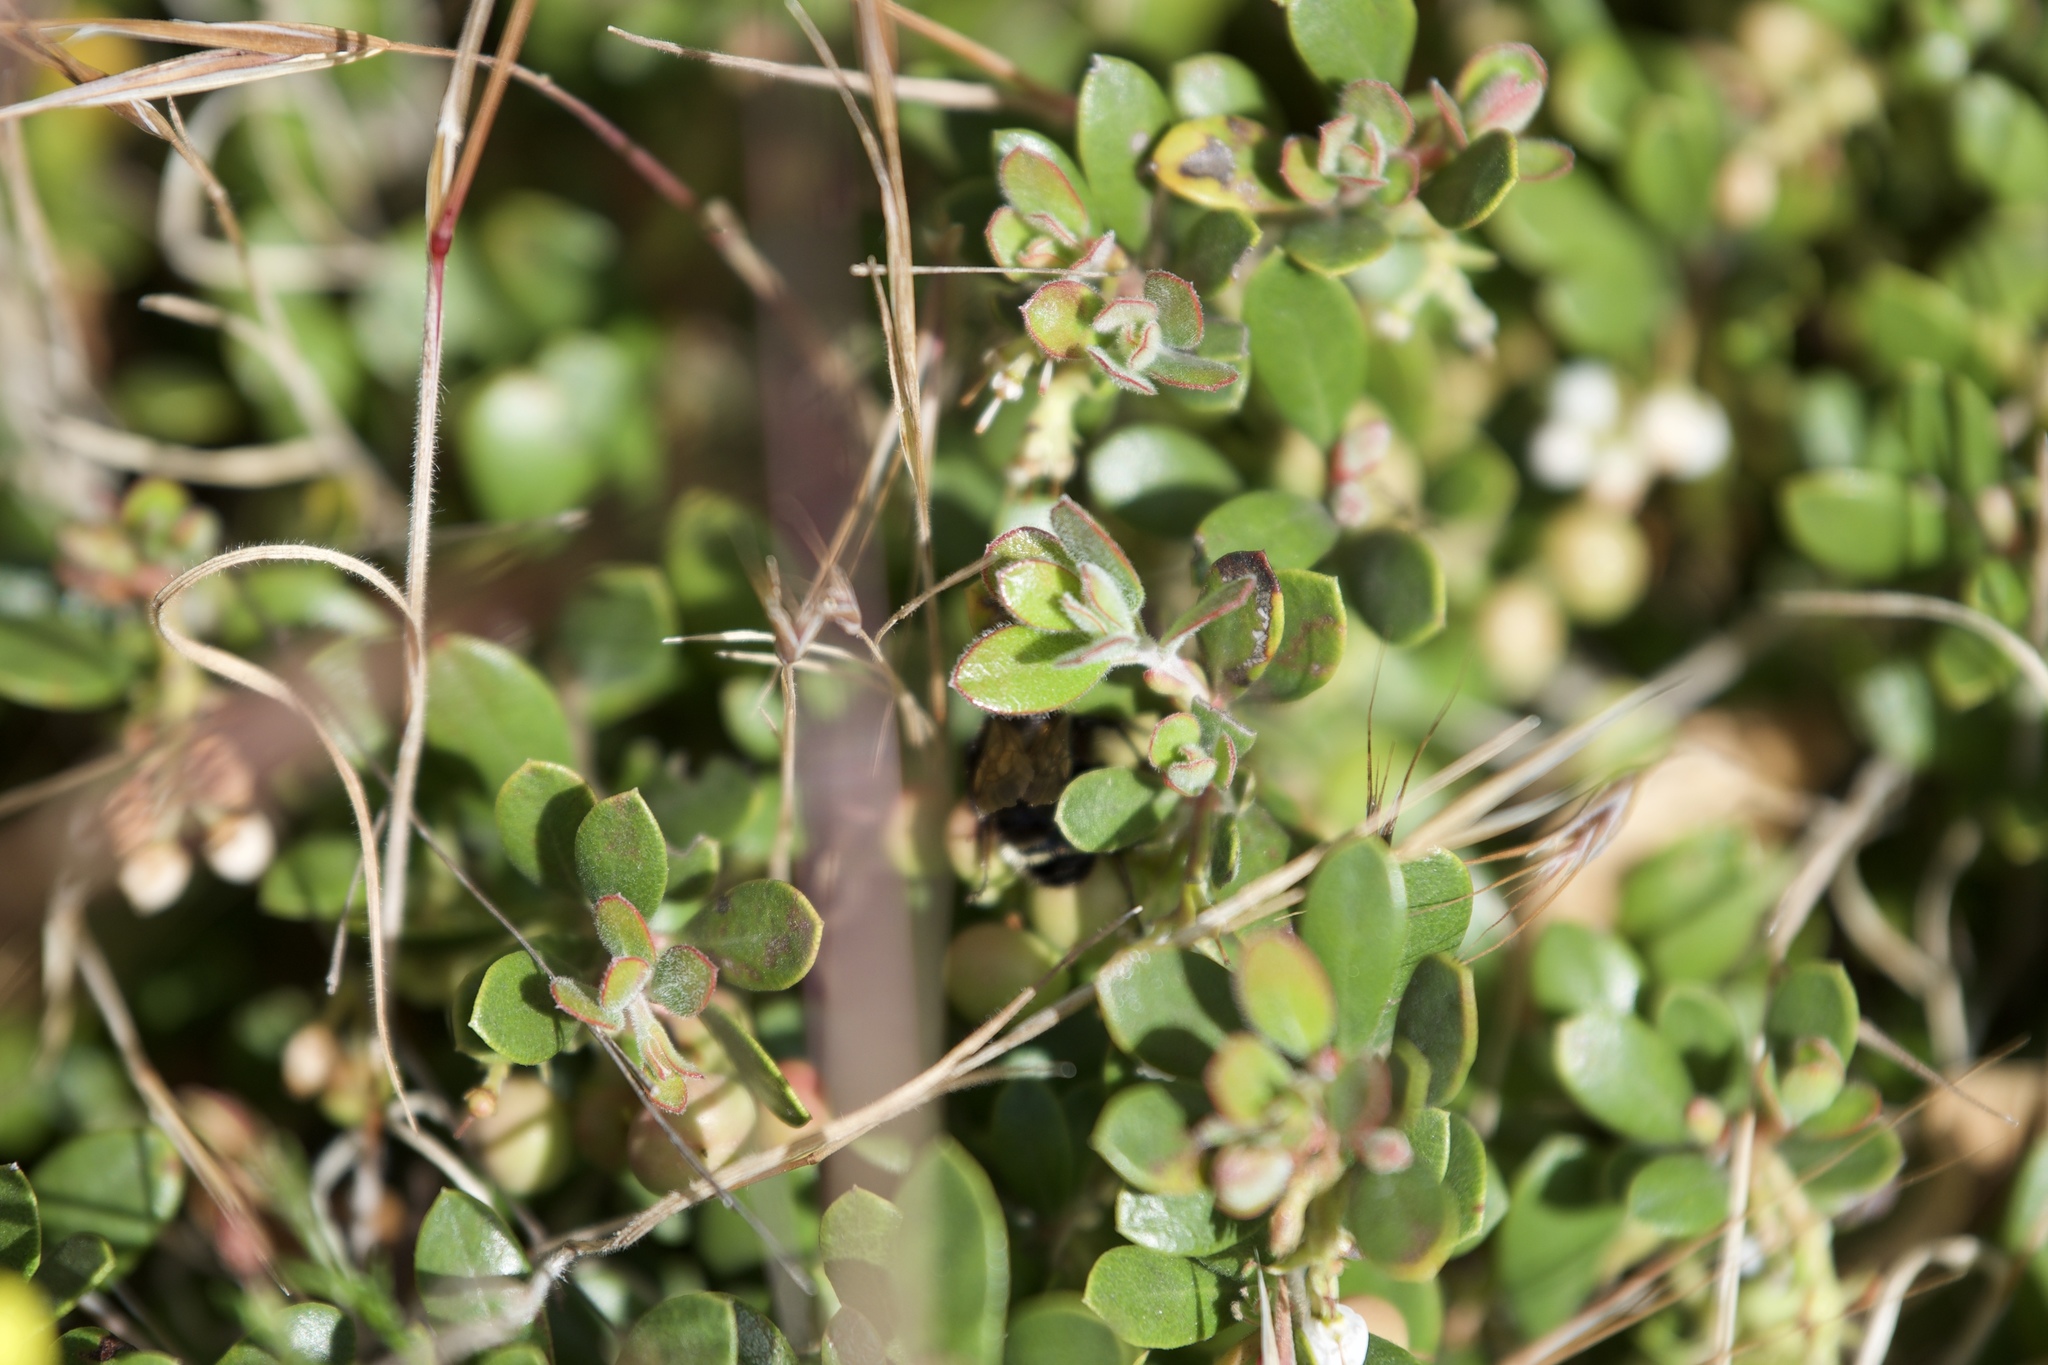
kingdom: Plantae
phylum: Tracheophyta
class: Magnoliopsida
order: Ericales
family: Ericaceae
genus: Arctostaphylos
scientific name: Arctostaphylos pumila
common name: Sandmat manzanita
